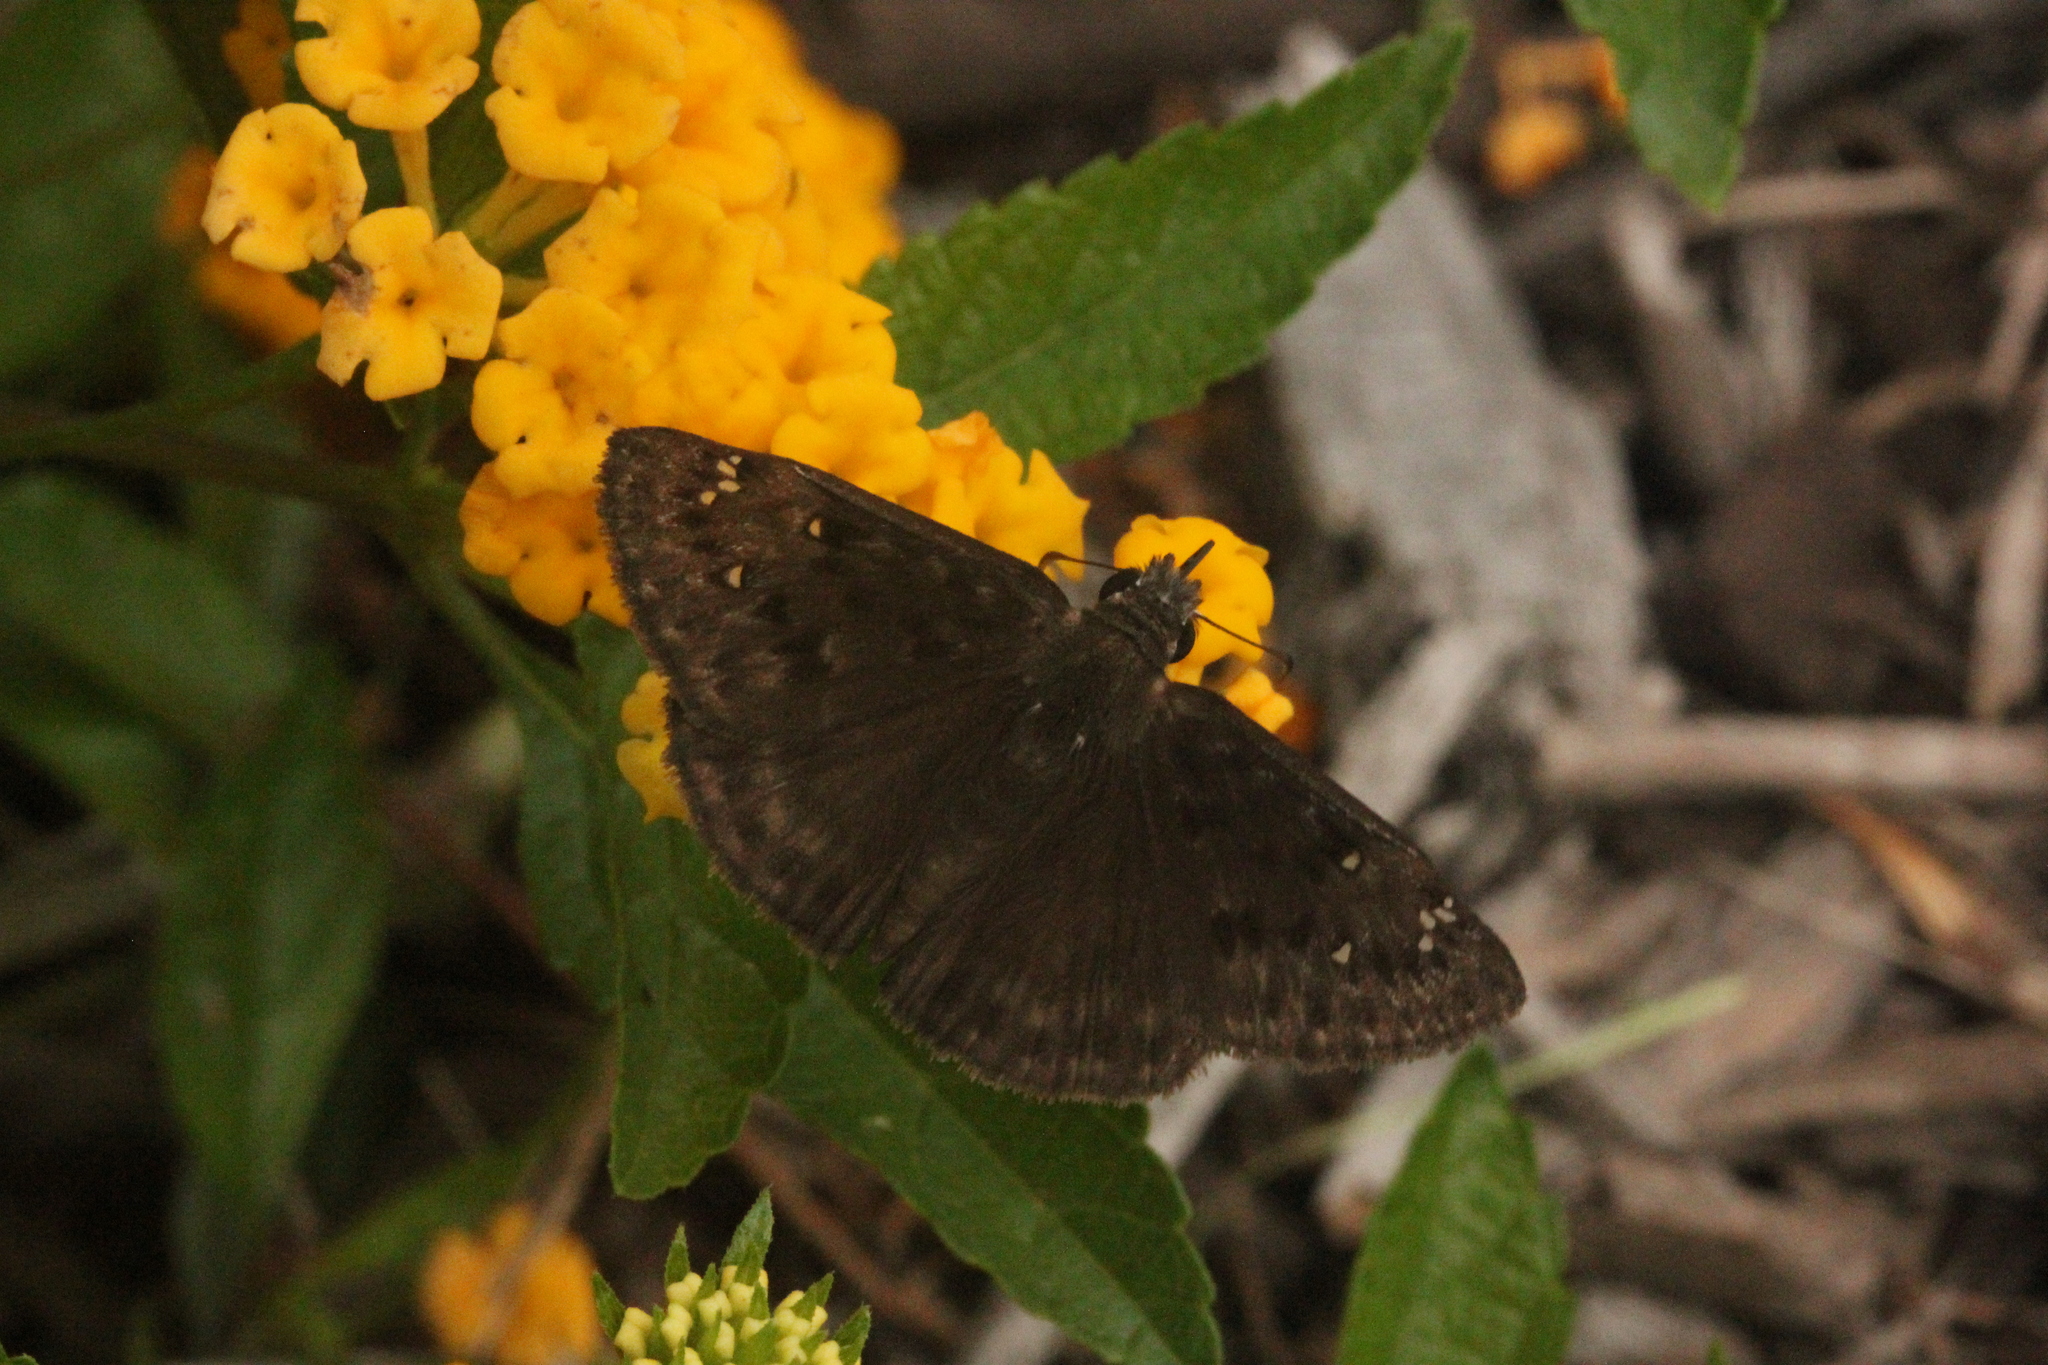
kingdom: Animalia
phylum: Arthropoda
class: Insecta
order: Lepidoptera
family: Hesperiidae
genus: Erynnis
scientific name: Erynnis horatius
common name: Horace's duskywing
